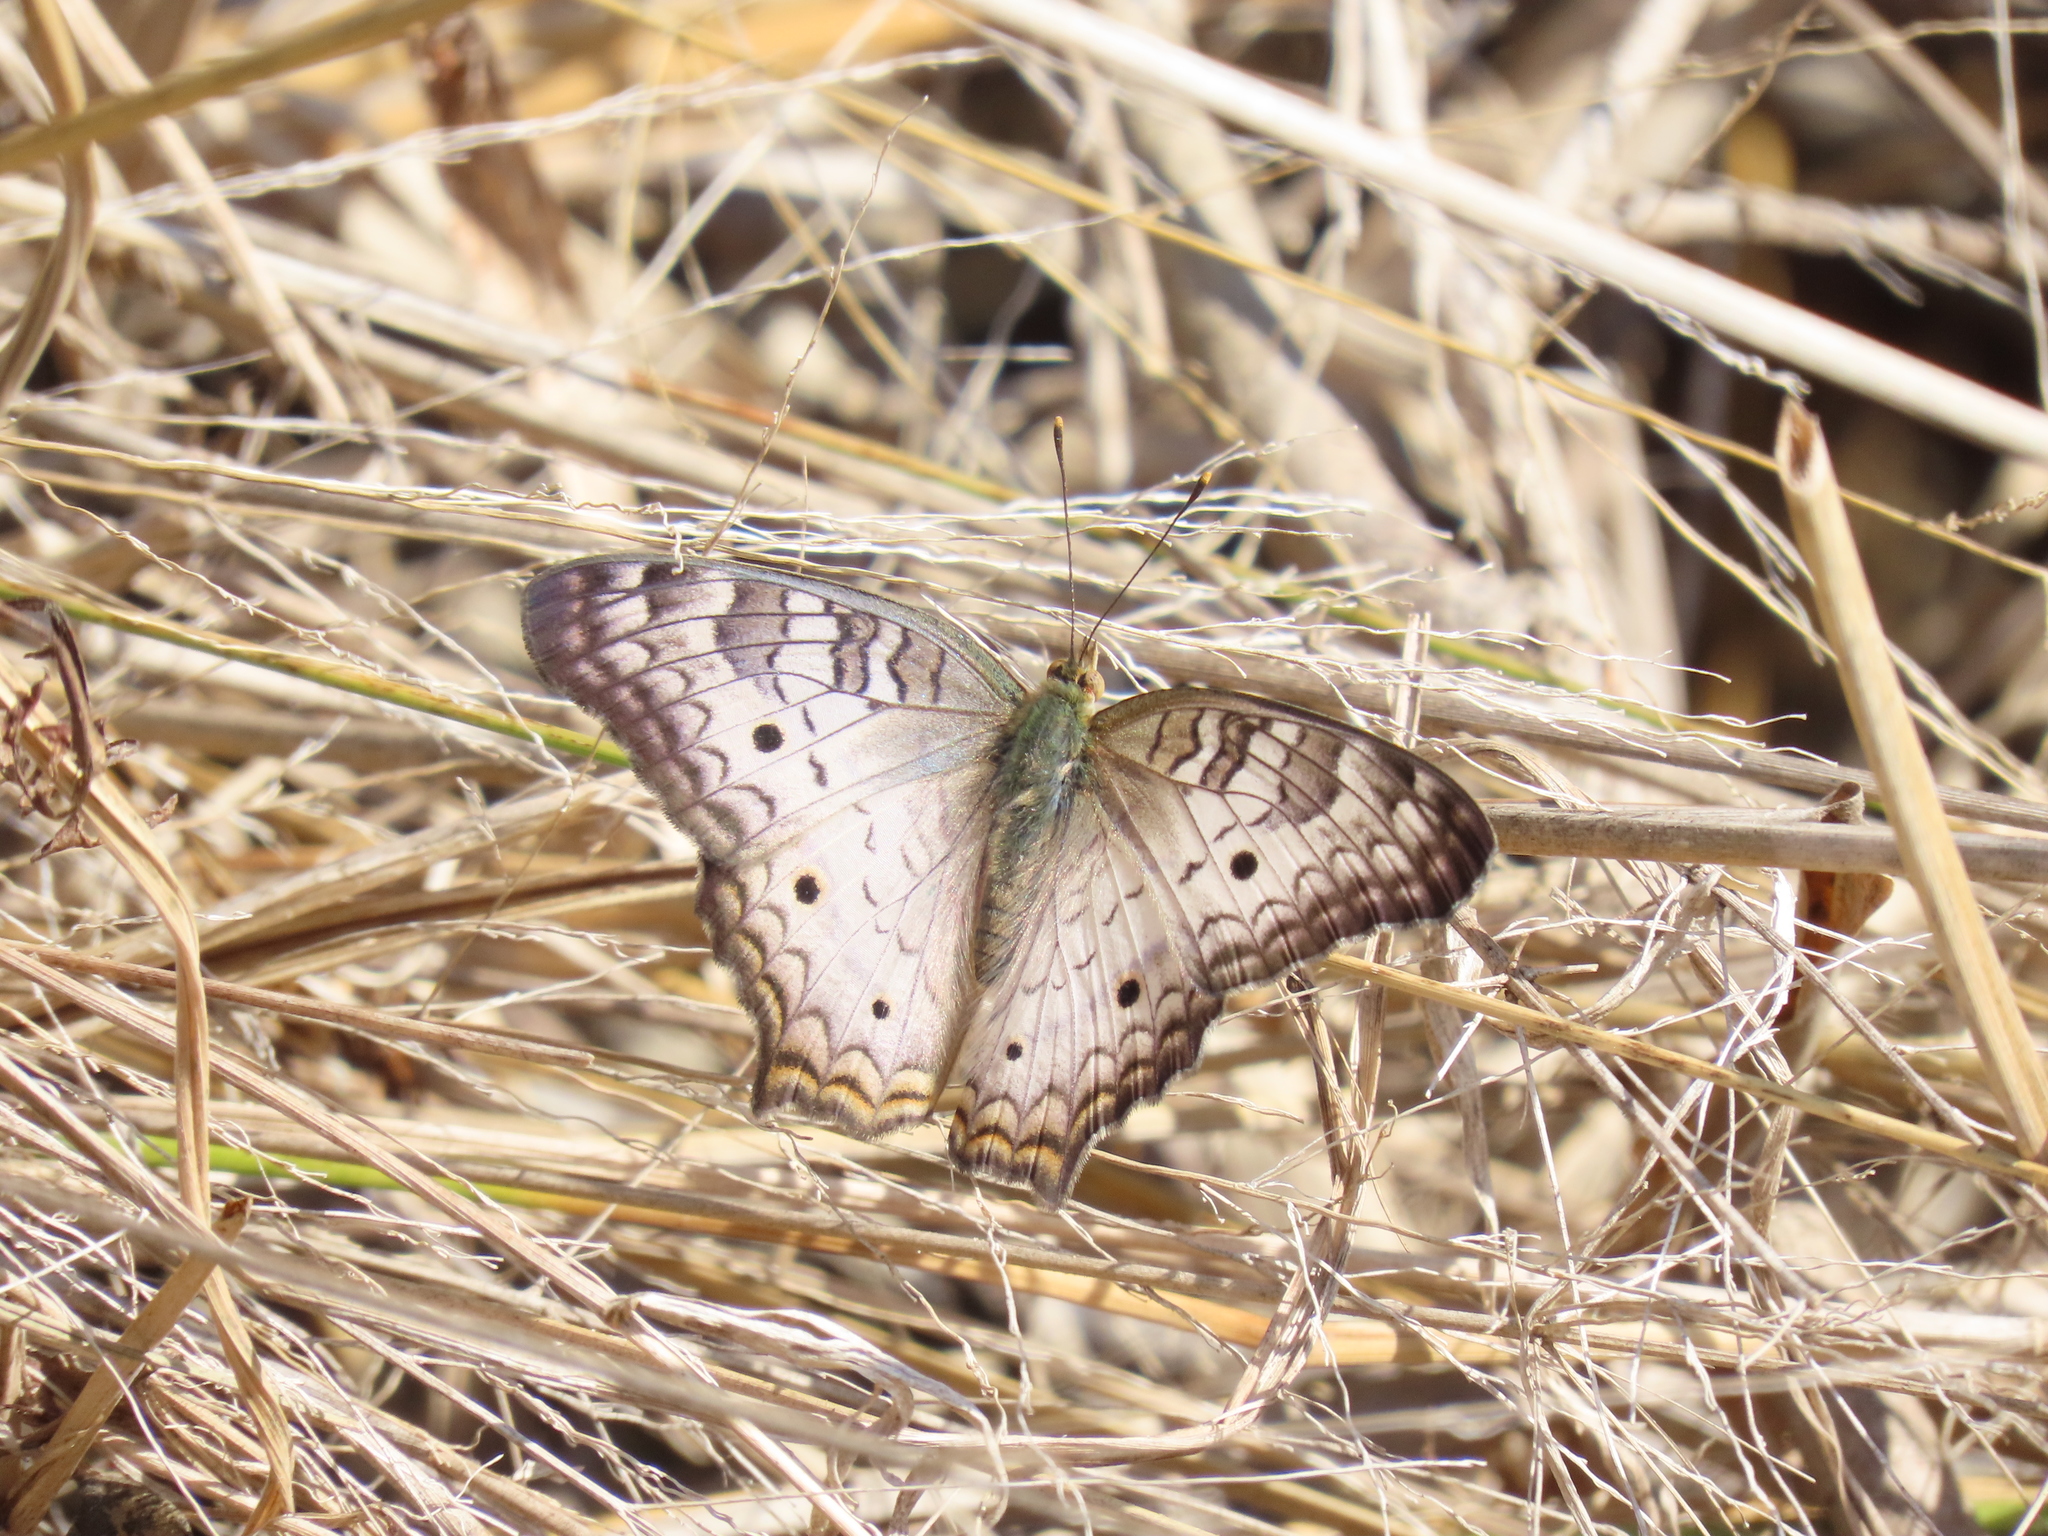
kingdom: Animalia
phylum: Arthropoda
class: Insecta
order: Lepidoptera
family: Nymphalidae
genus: Anartia
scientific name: Anartia jatrophae
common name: White peacock
